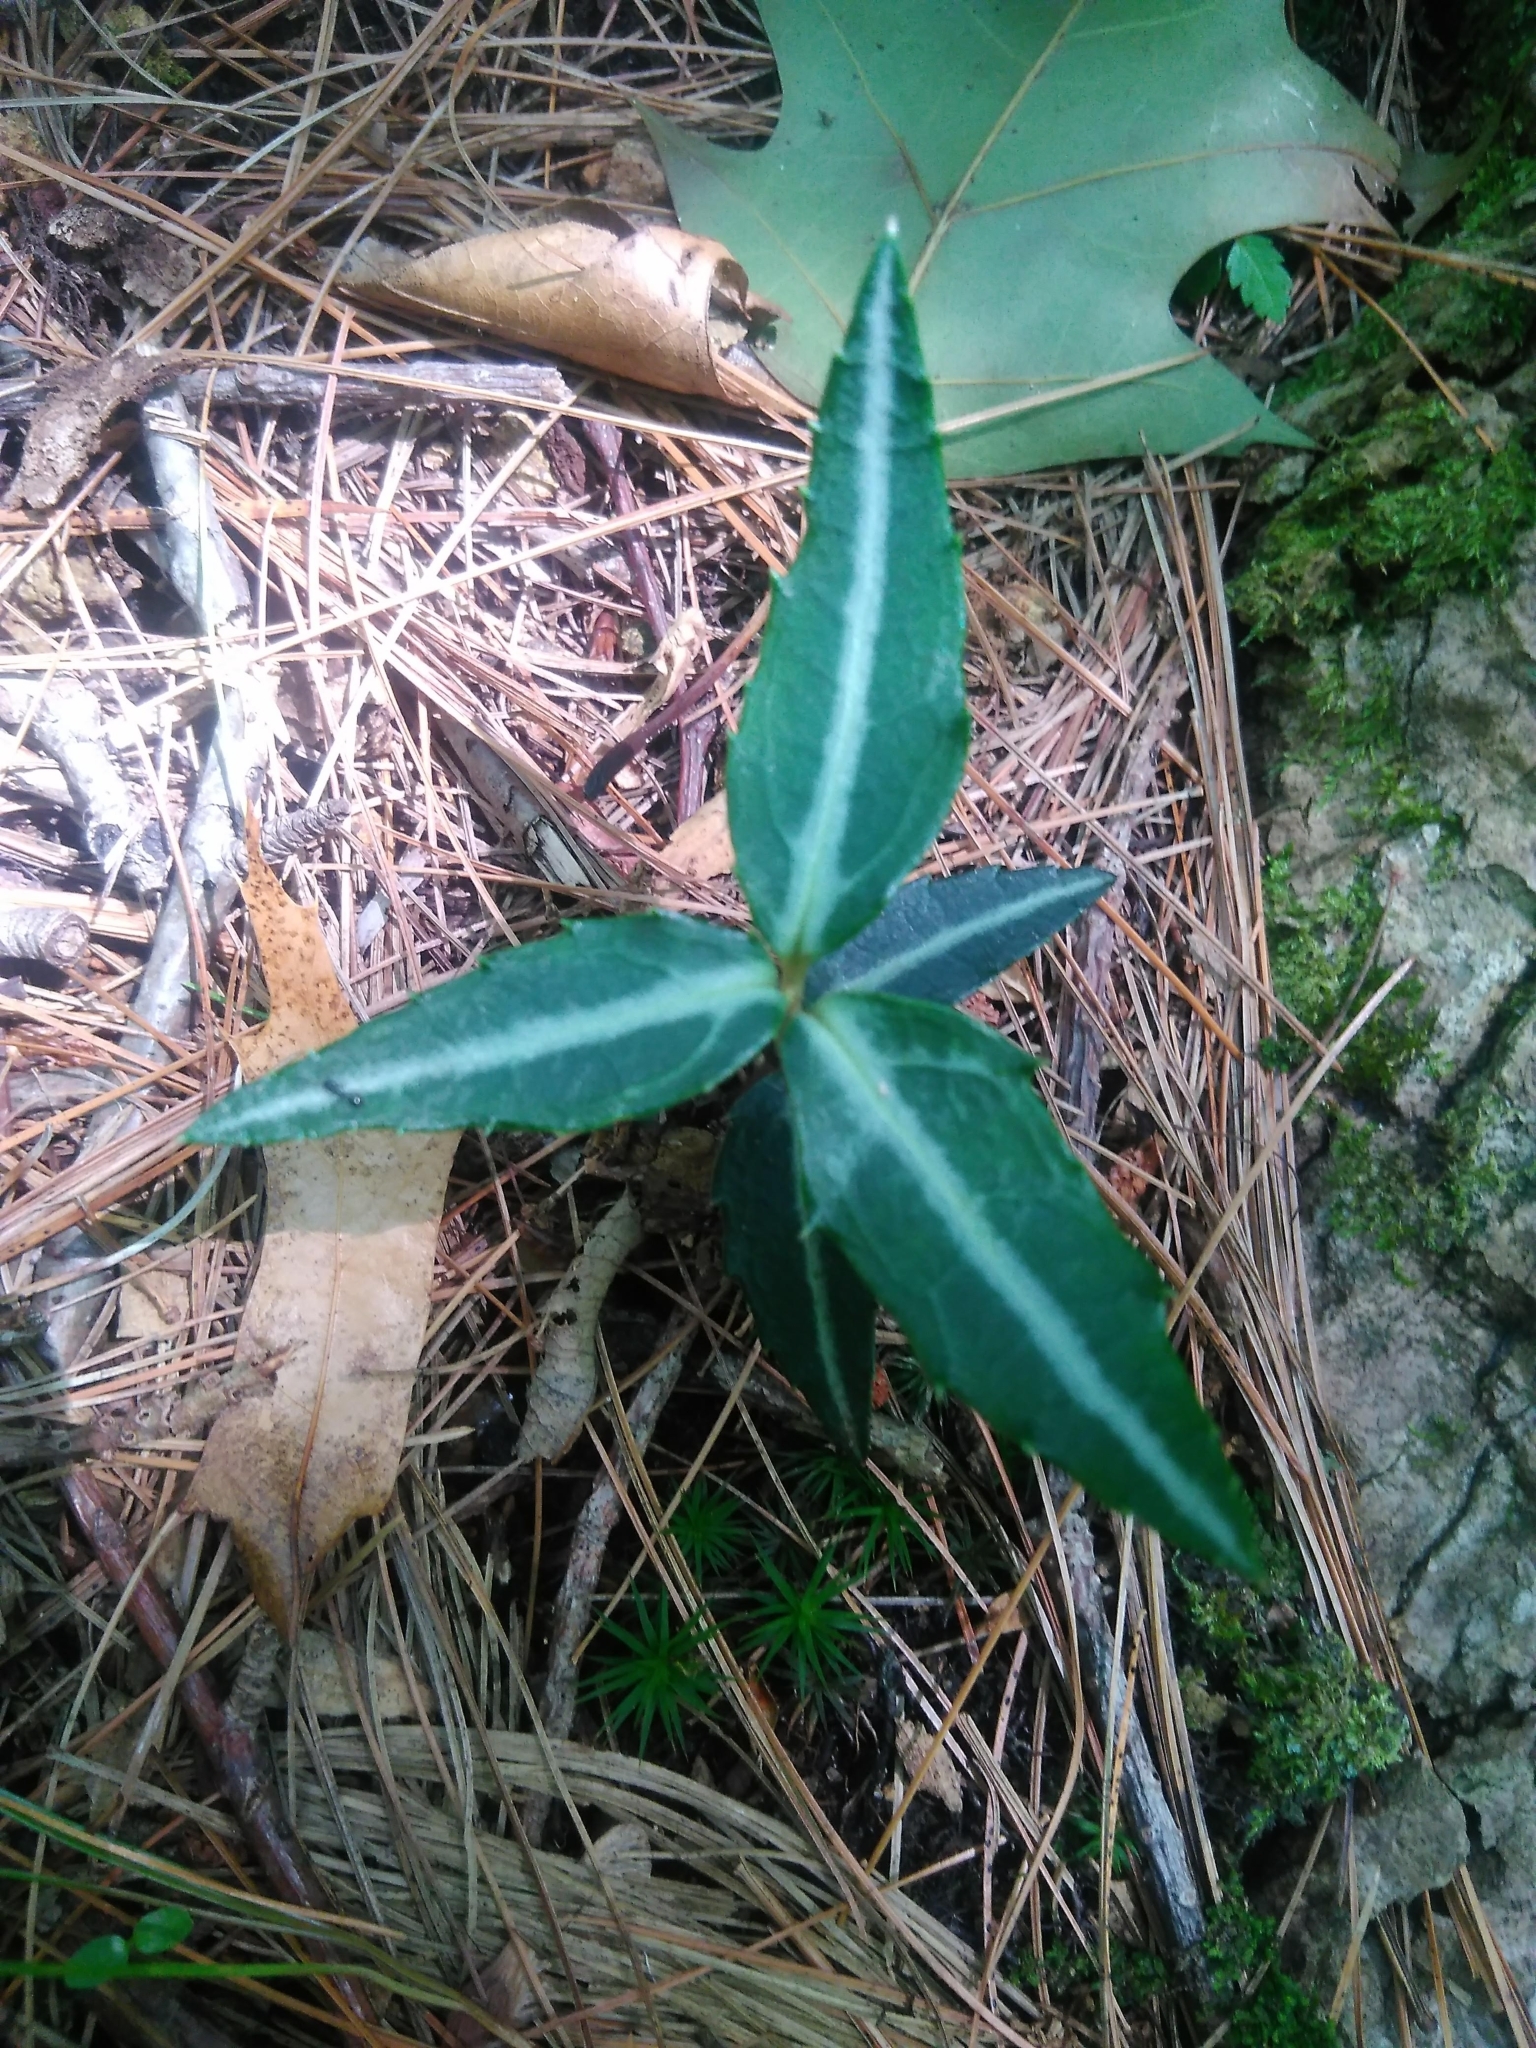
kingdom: Plantae
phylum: Tracheophyta
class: Magnoliopsida
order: Ericales
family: Ericaceae
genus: Chimaphila
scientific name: Chimaphila maculata
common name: Spotted pipsissewa
